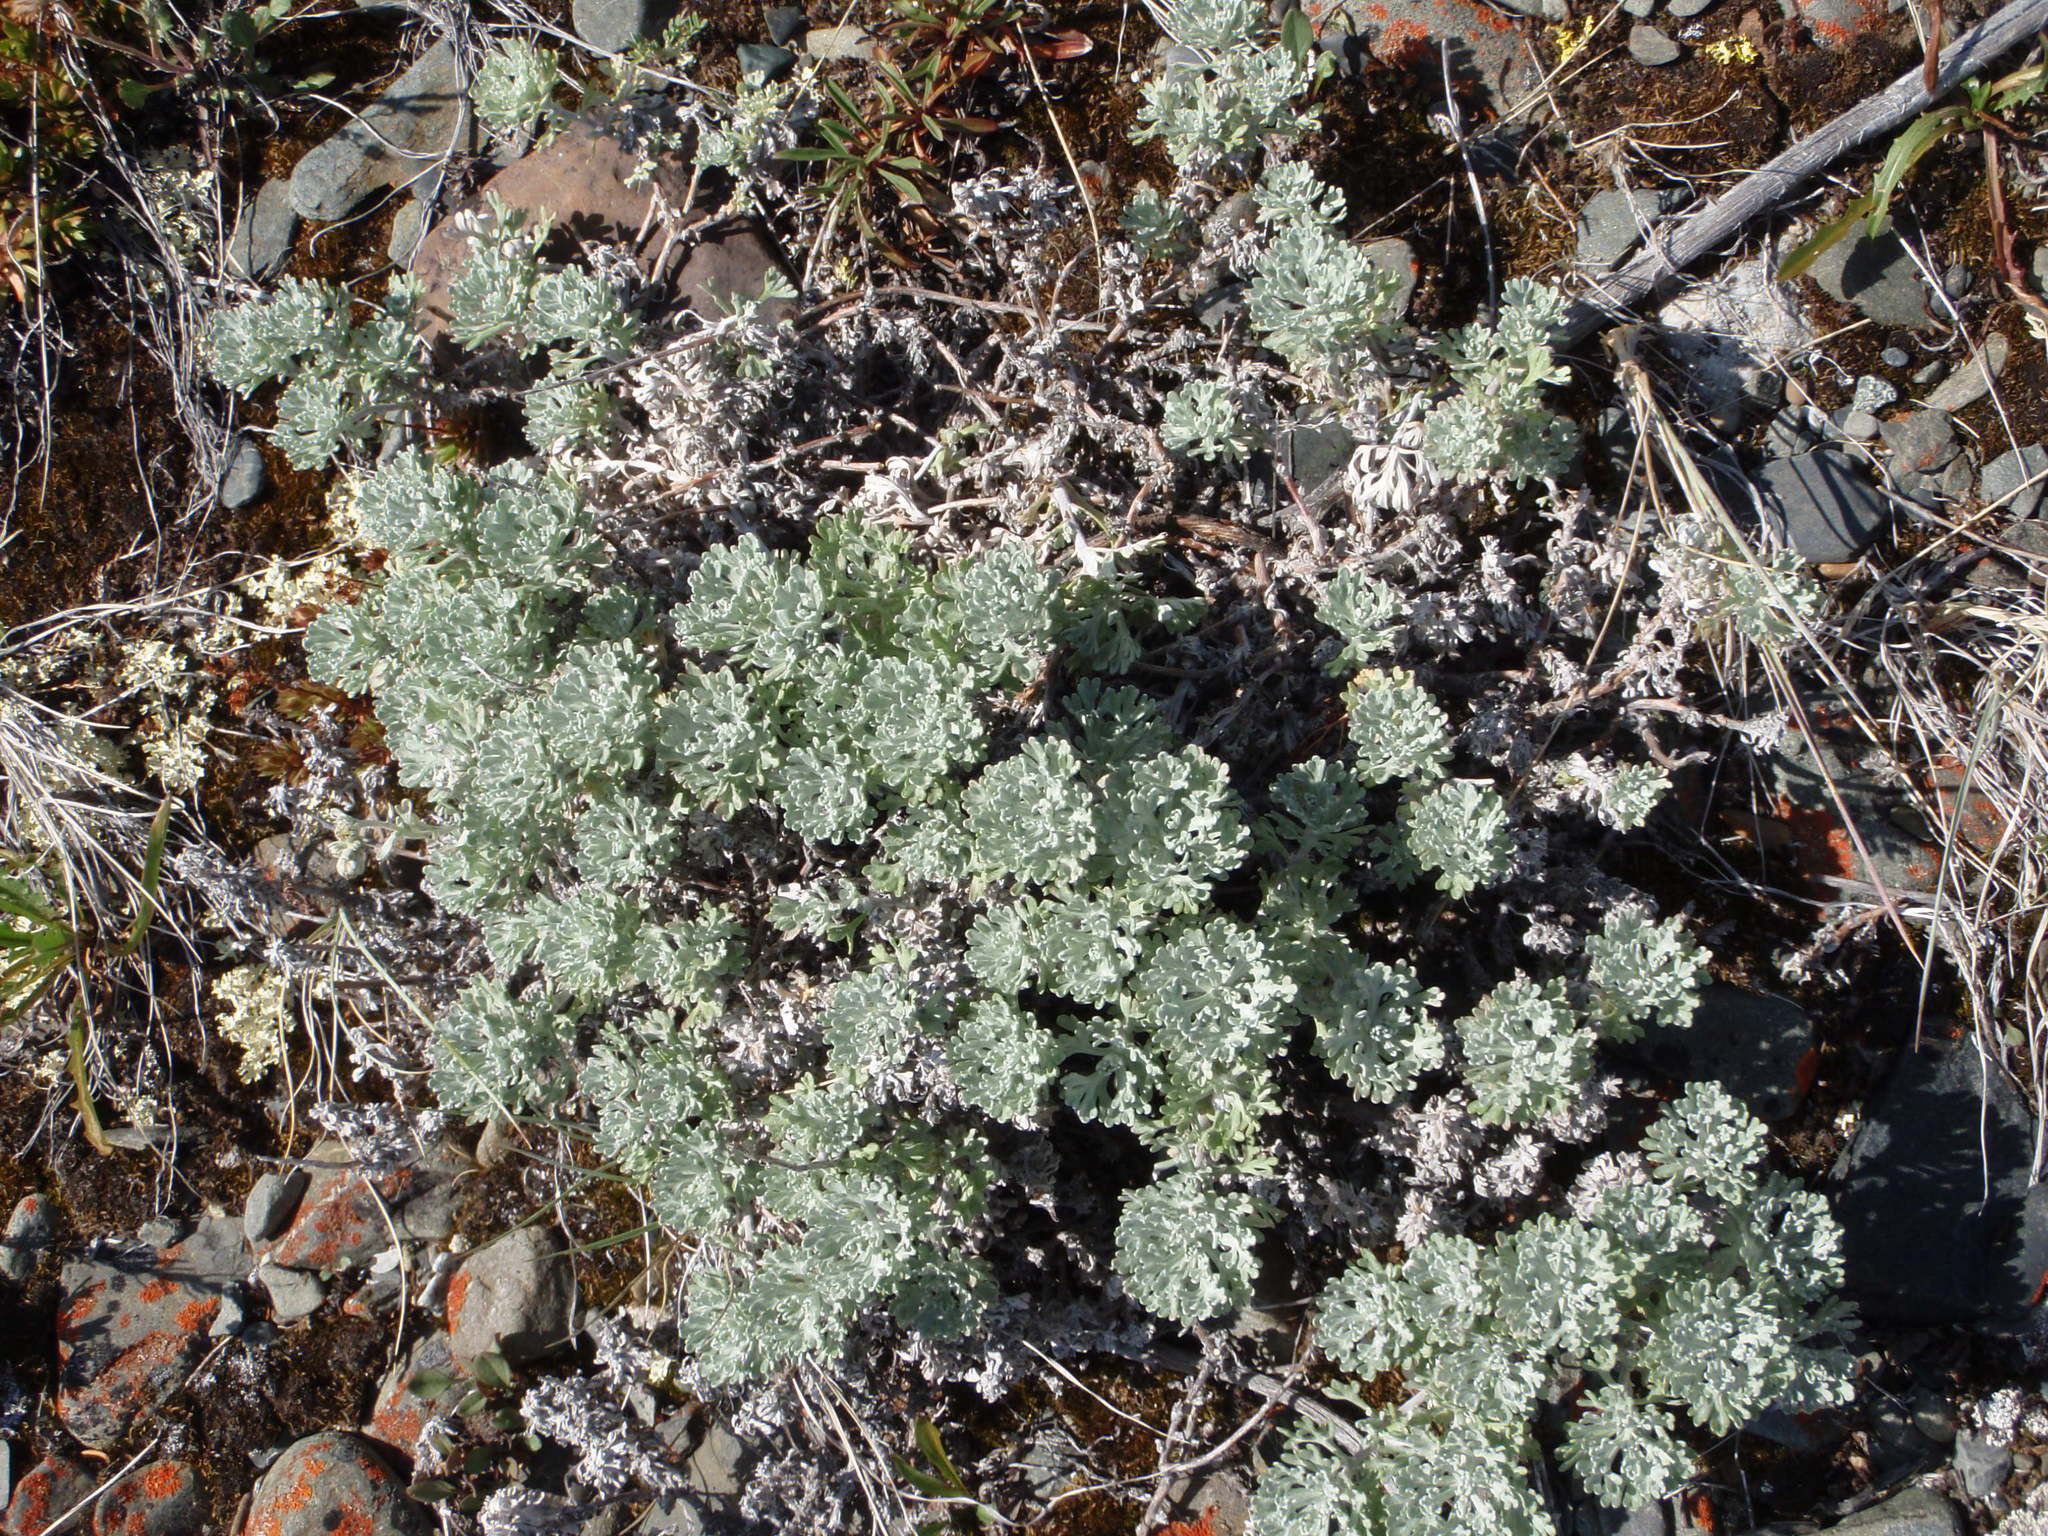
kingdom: Plantae
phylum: Tracheophyta
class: Magnoliopsida
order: Asterales
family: Asteraceae
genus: Artemisia
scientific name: Artemisia kruhsiana
